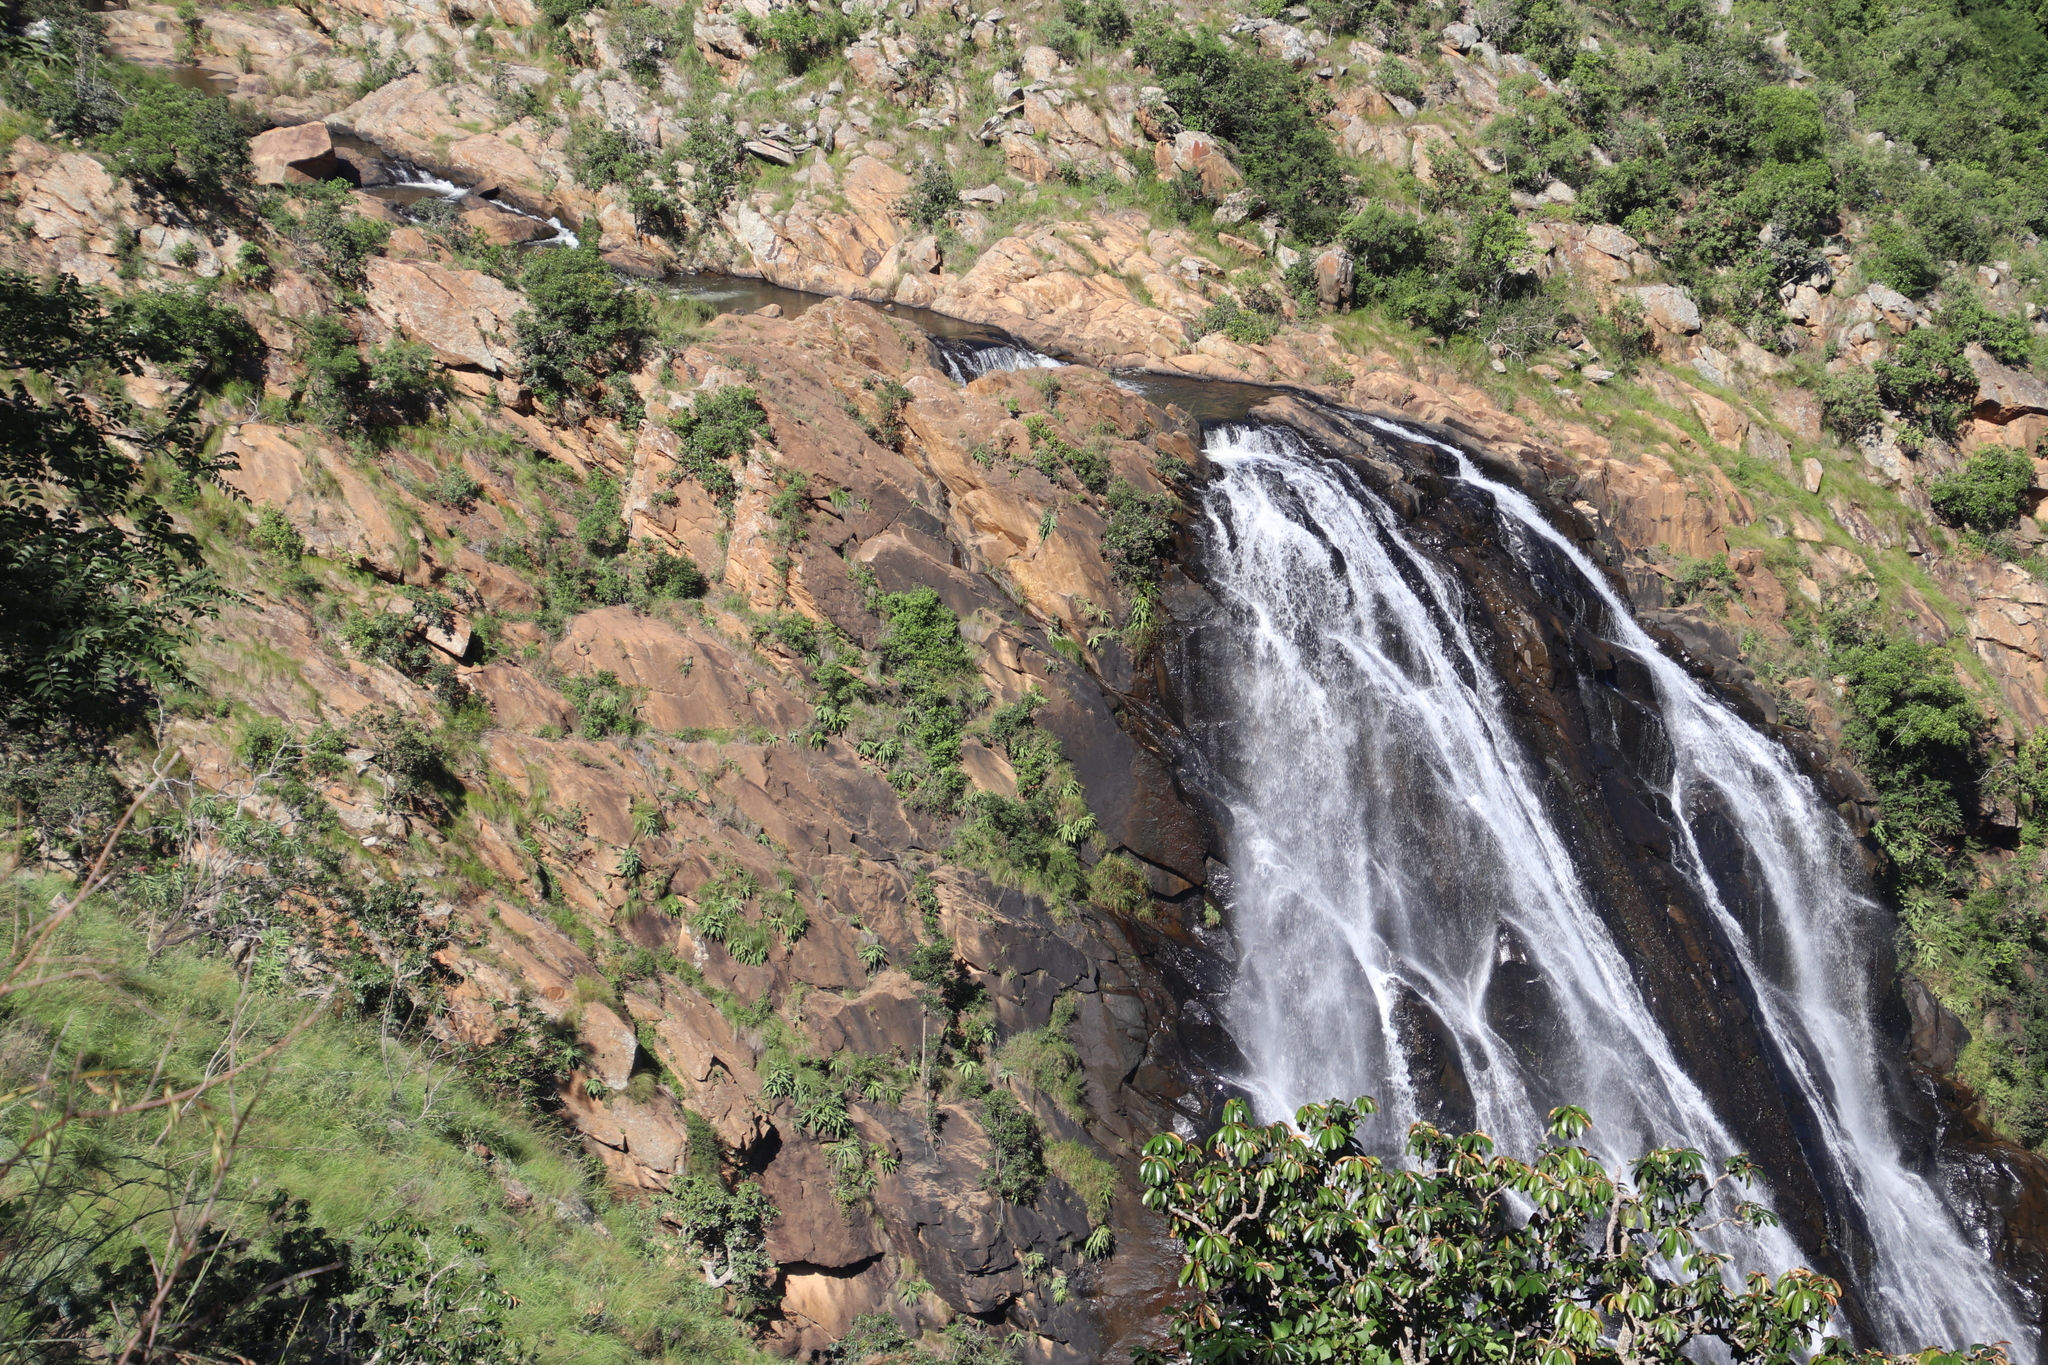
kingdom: Plantae
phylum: Tracheophyta
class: Liliopsida
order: Asparagales
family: Asparagaceae
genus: Merwilla
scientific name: Merwilla plumbea
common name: Blue-squill
